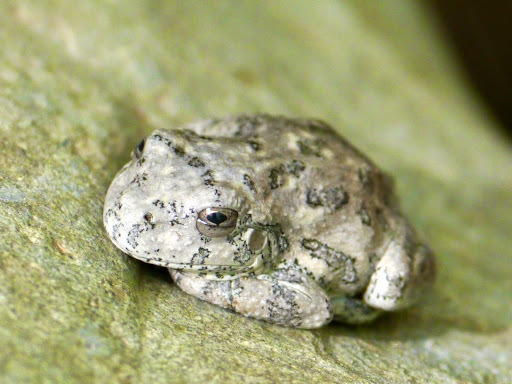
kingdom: Animalia
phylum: Chordata
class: Amphibia
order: Anura
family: Hylidae
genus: Dryophytes
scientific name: Dryophytes arenicolor
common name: Canyon treefrog
